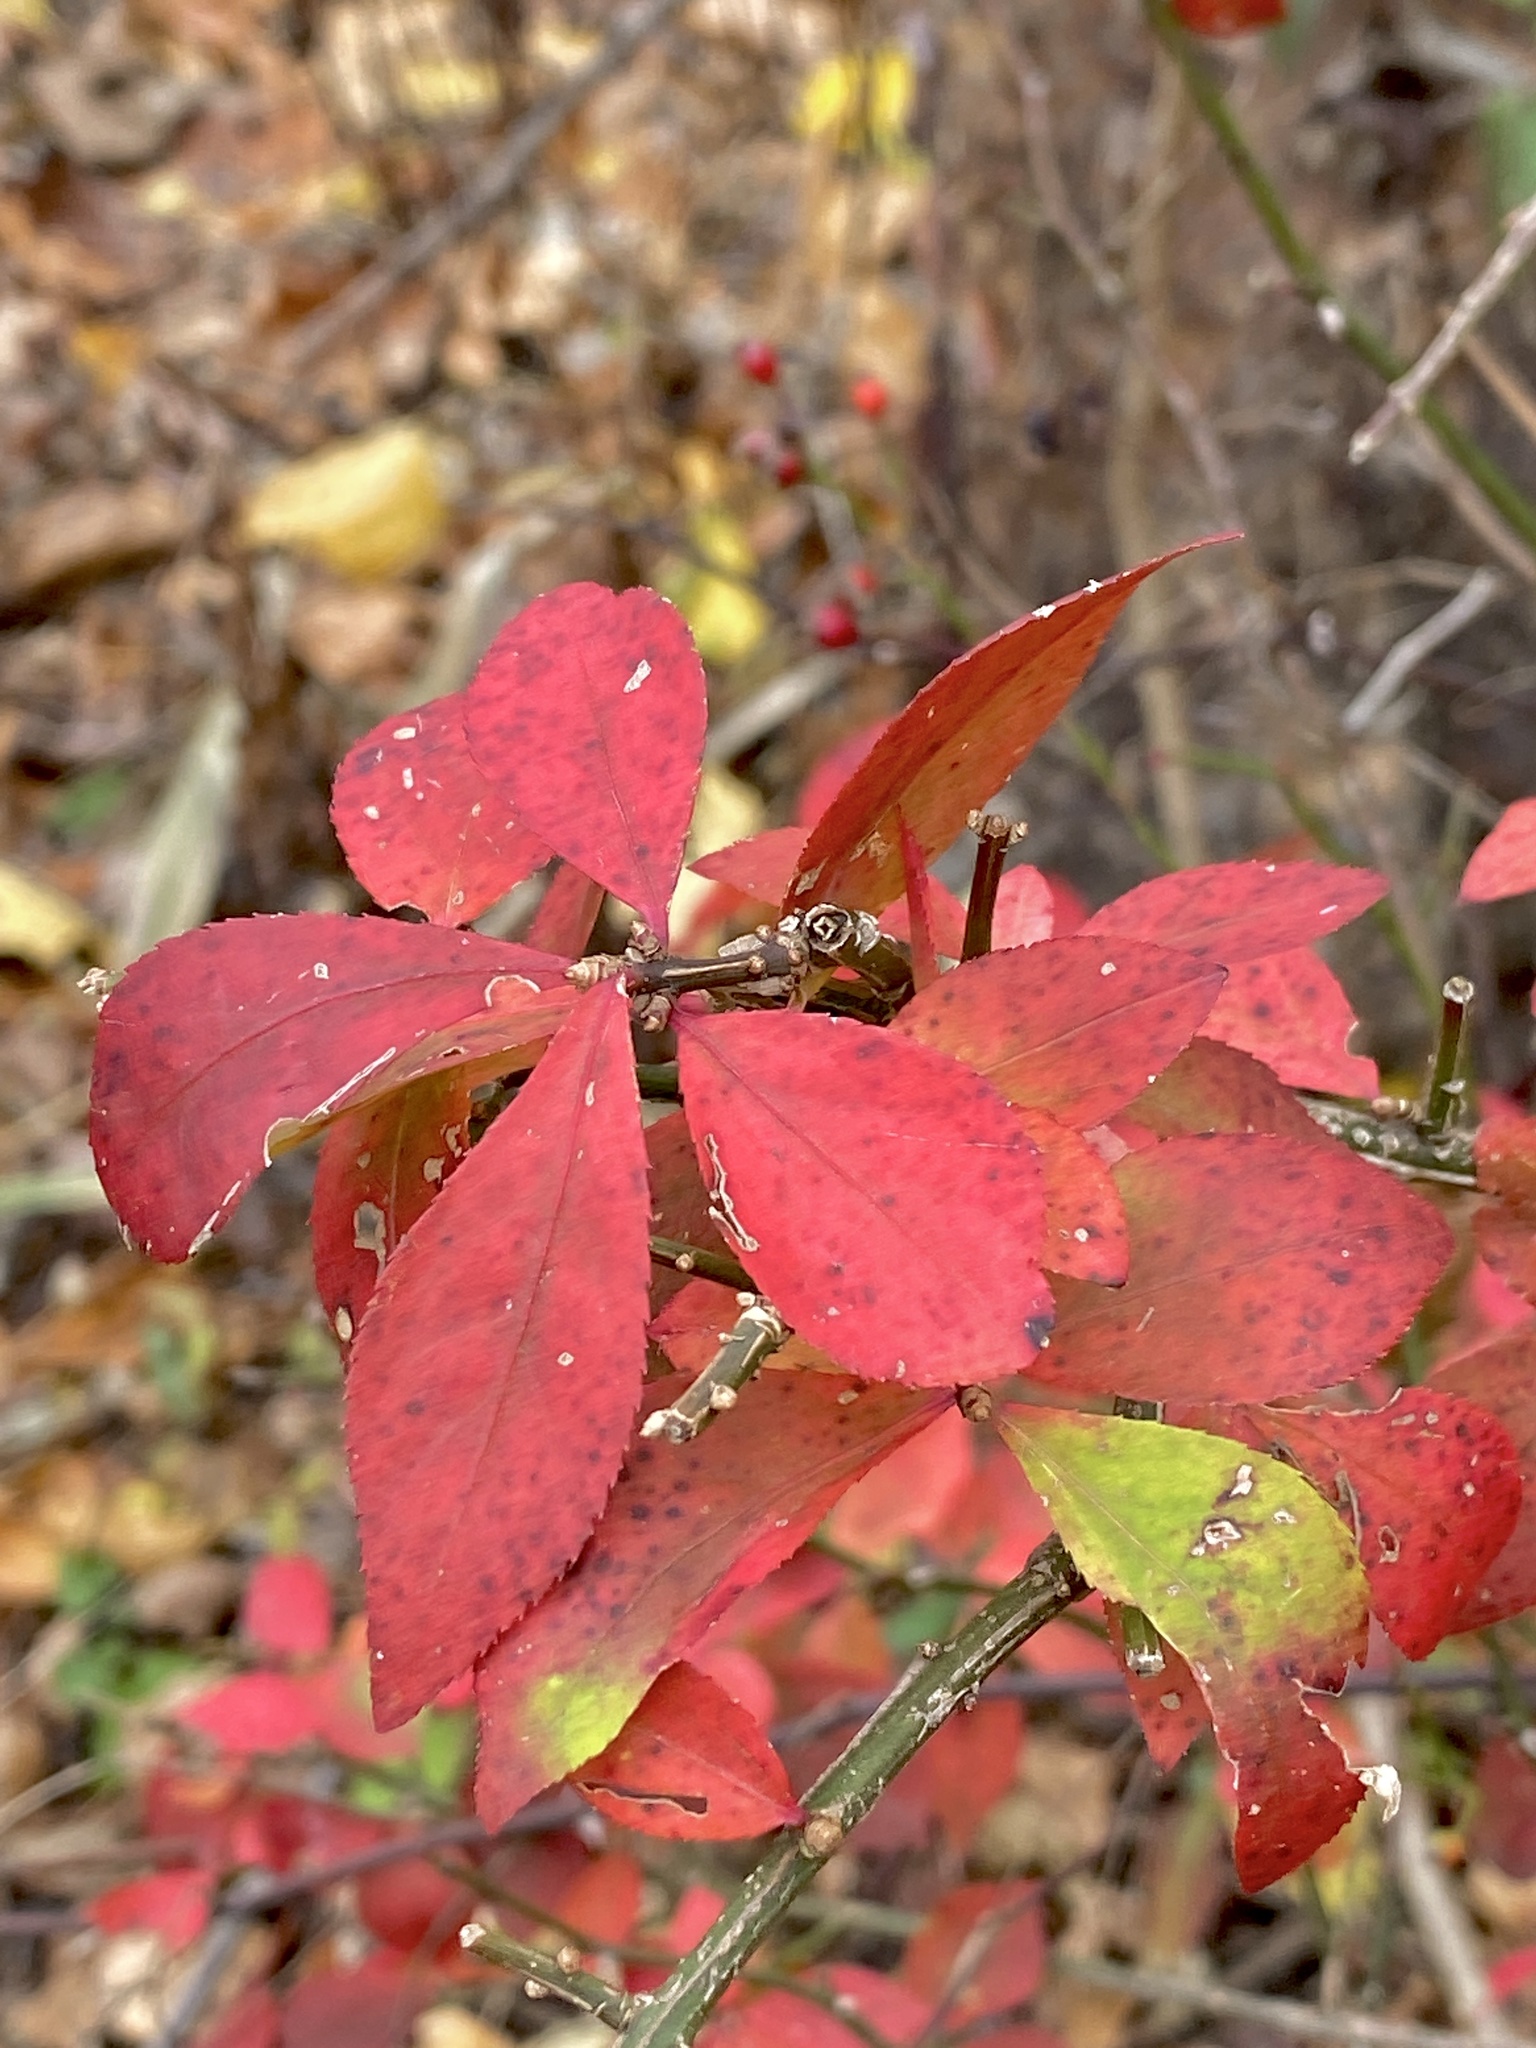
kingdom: Plantae
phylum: Tracheophyta
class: Magnoliopsida
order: Celastrales
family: Celastraceae
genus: Euonymus
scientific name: Euonymus alatus
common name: Winged euonymus
